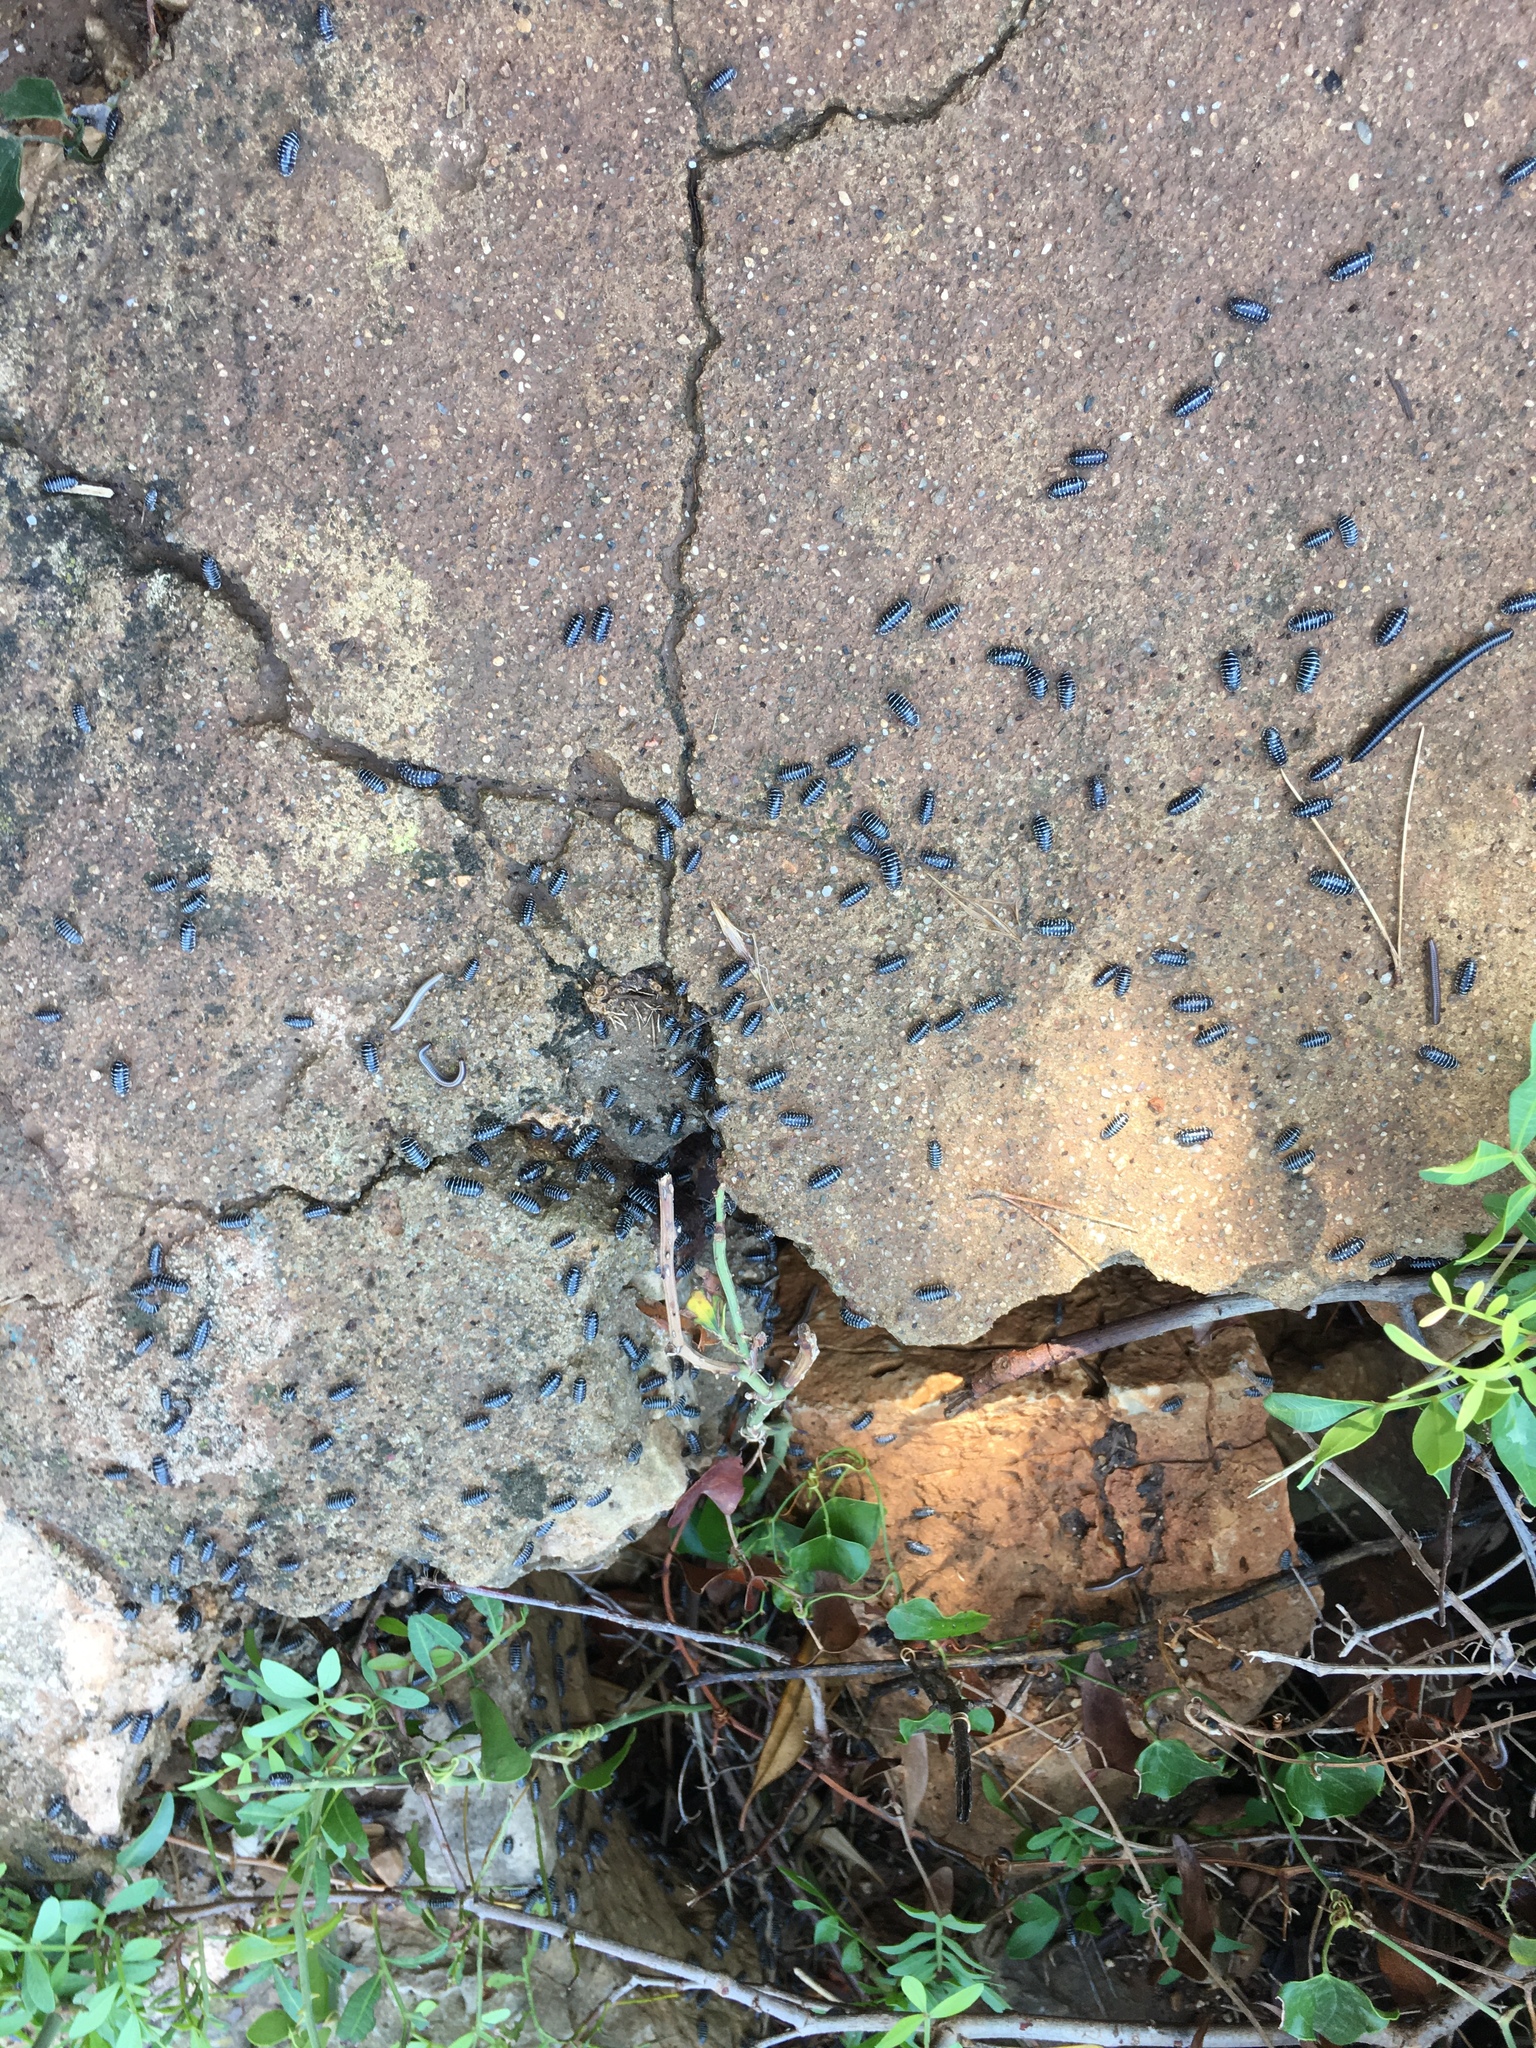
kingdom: Animalia
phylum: Arthropoda
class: Malacostraca
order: Isopoda
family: Armadillidiidae
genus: Armadillidium
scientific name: Armadillidium maculatum
